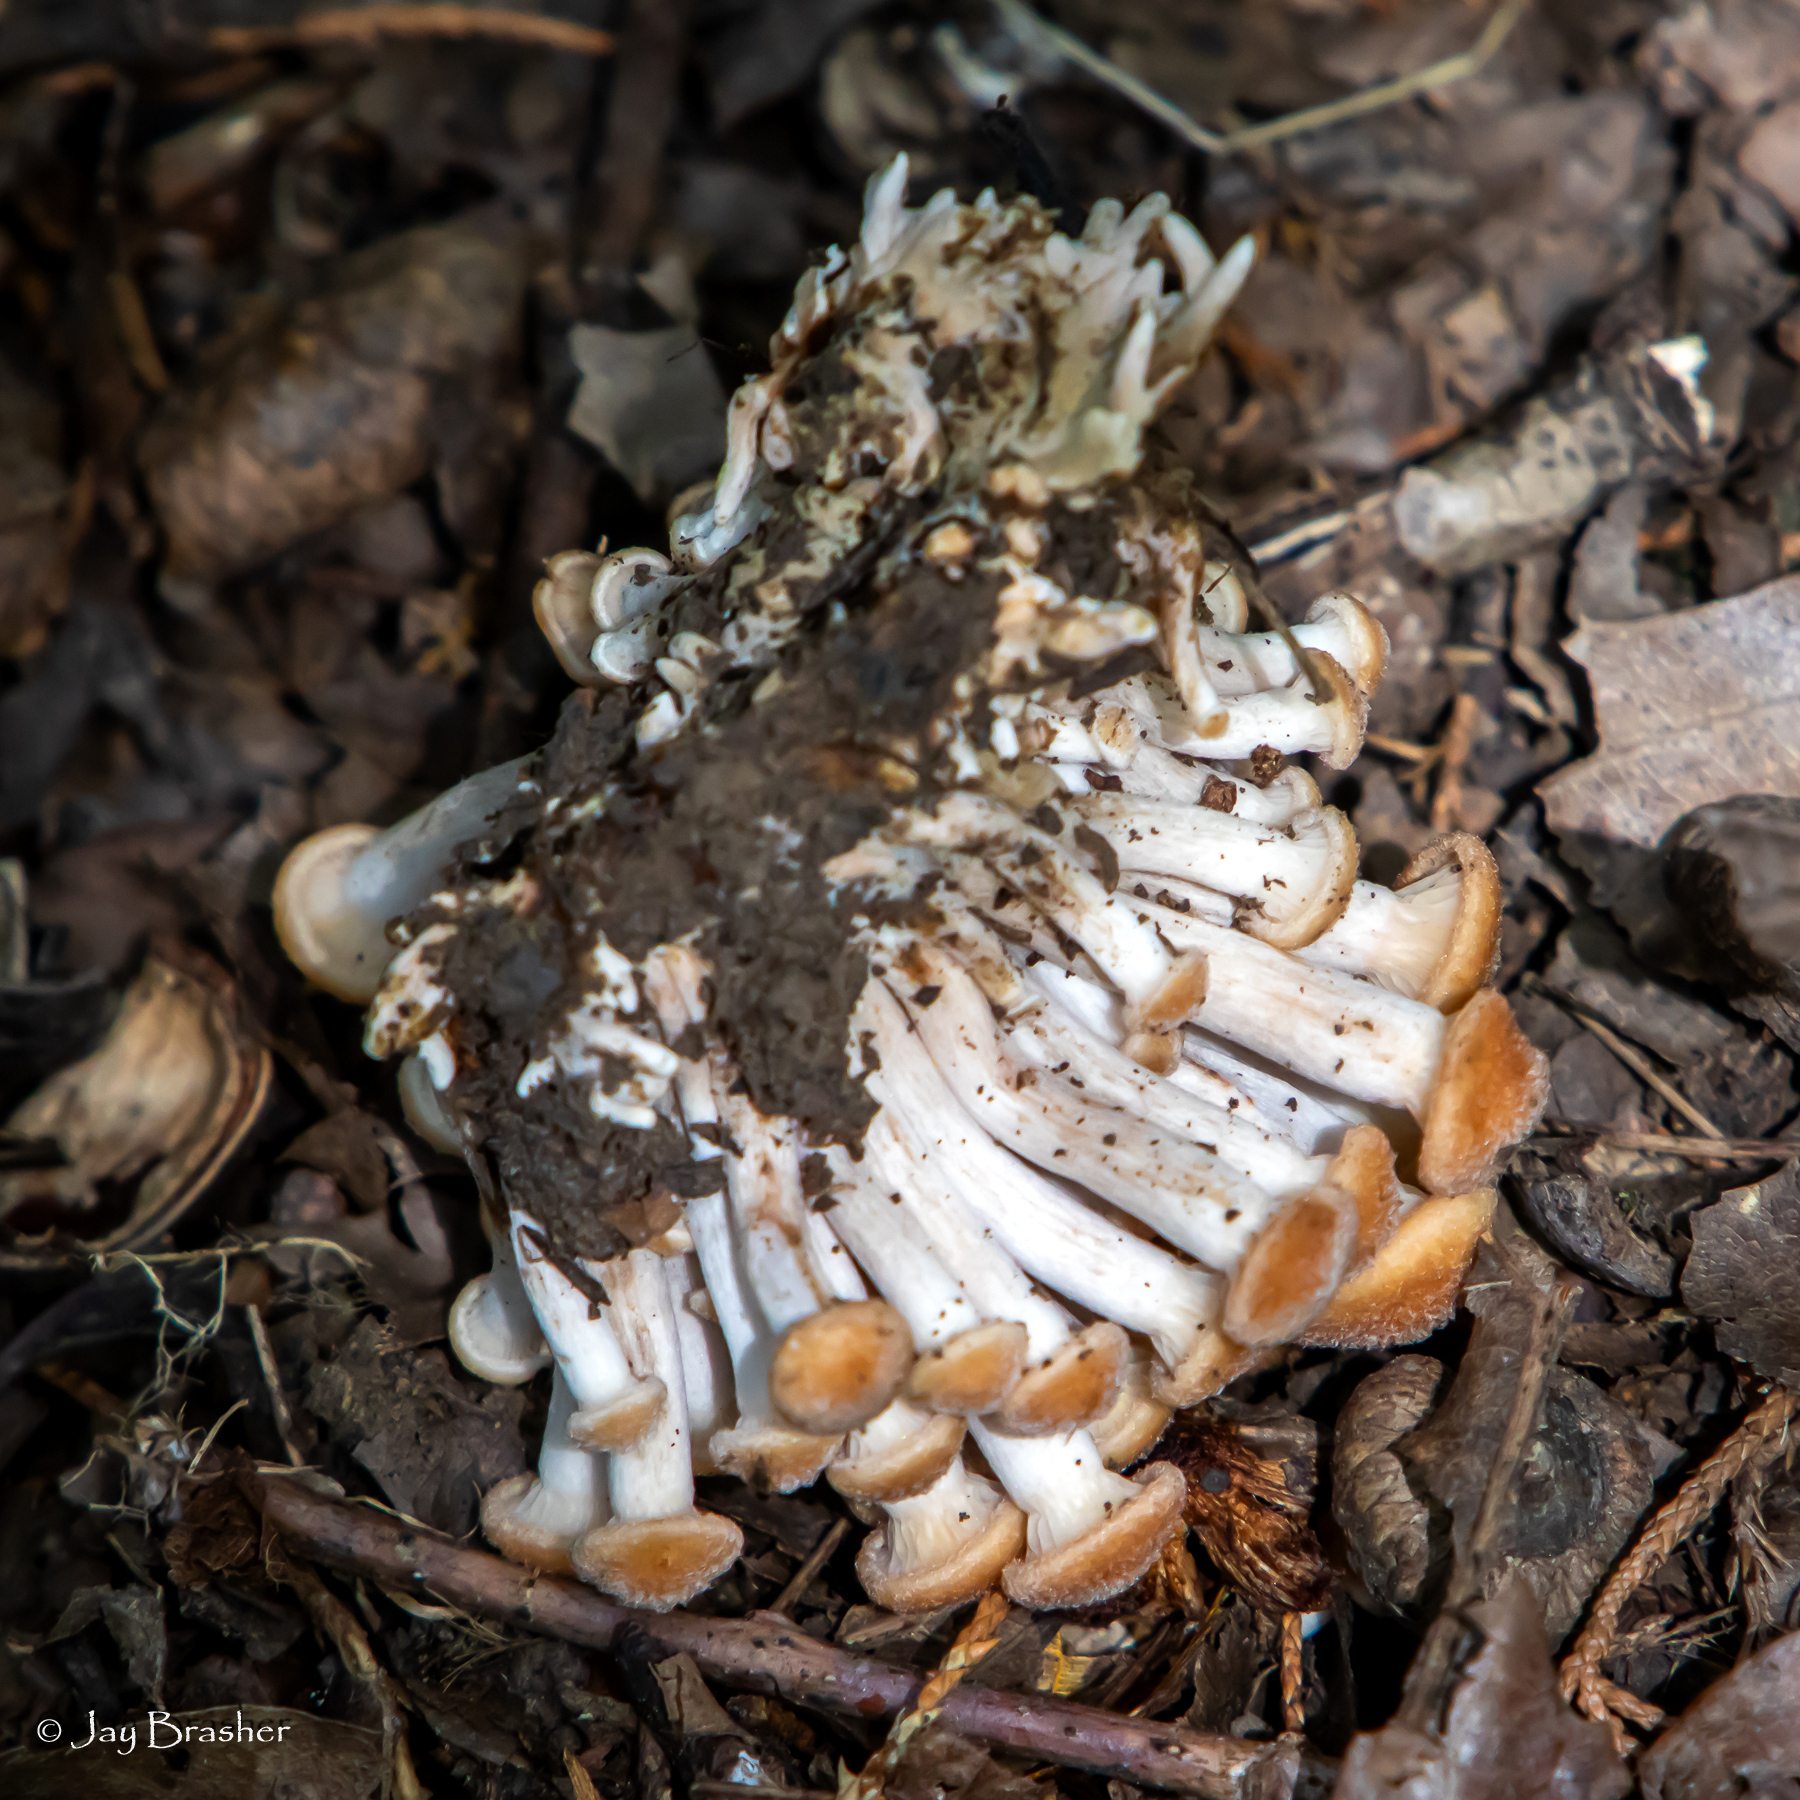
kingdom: Fungi
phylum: Basidiomycota
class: Agaricomycetes
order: Agaricales
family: Physalacriaceae
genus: Desarmillaria
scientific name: Desarmillaria caespitosa
